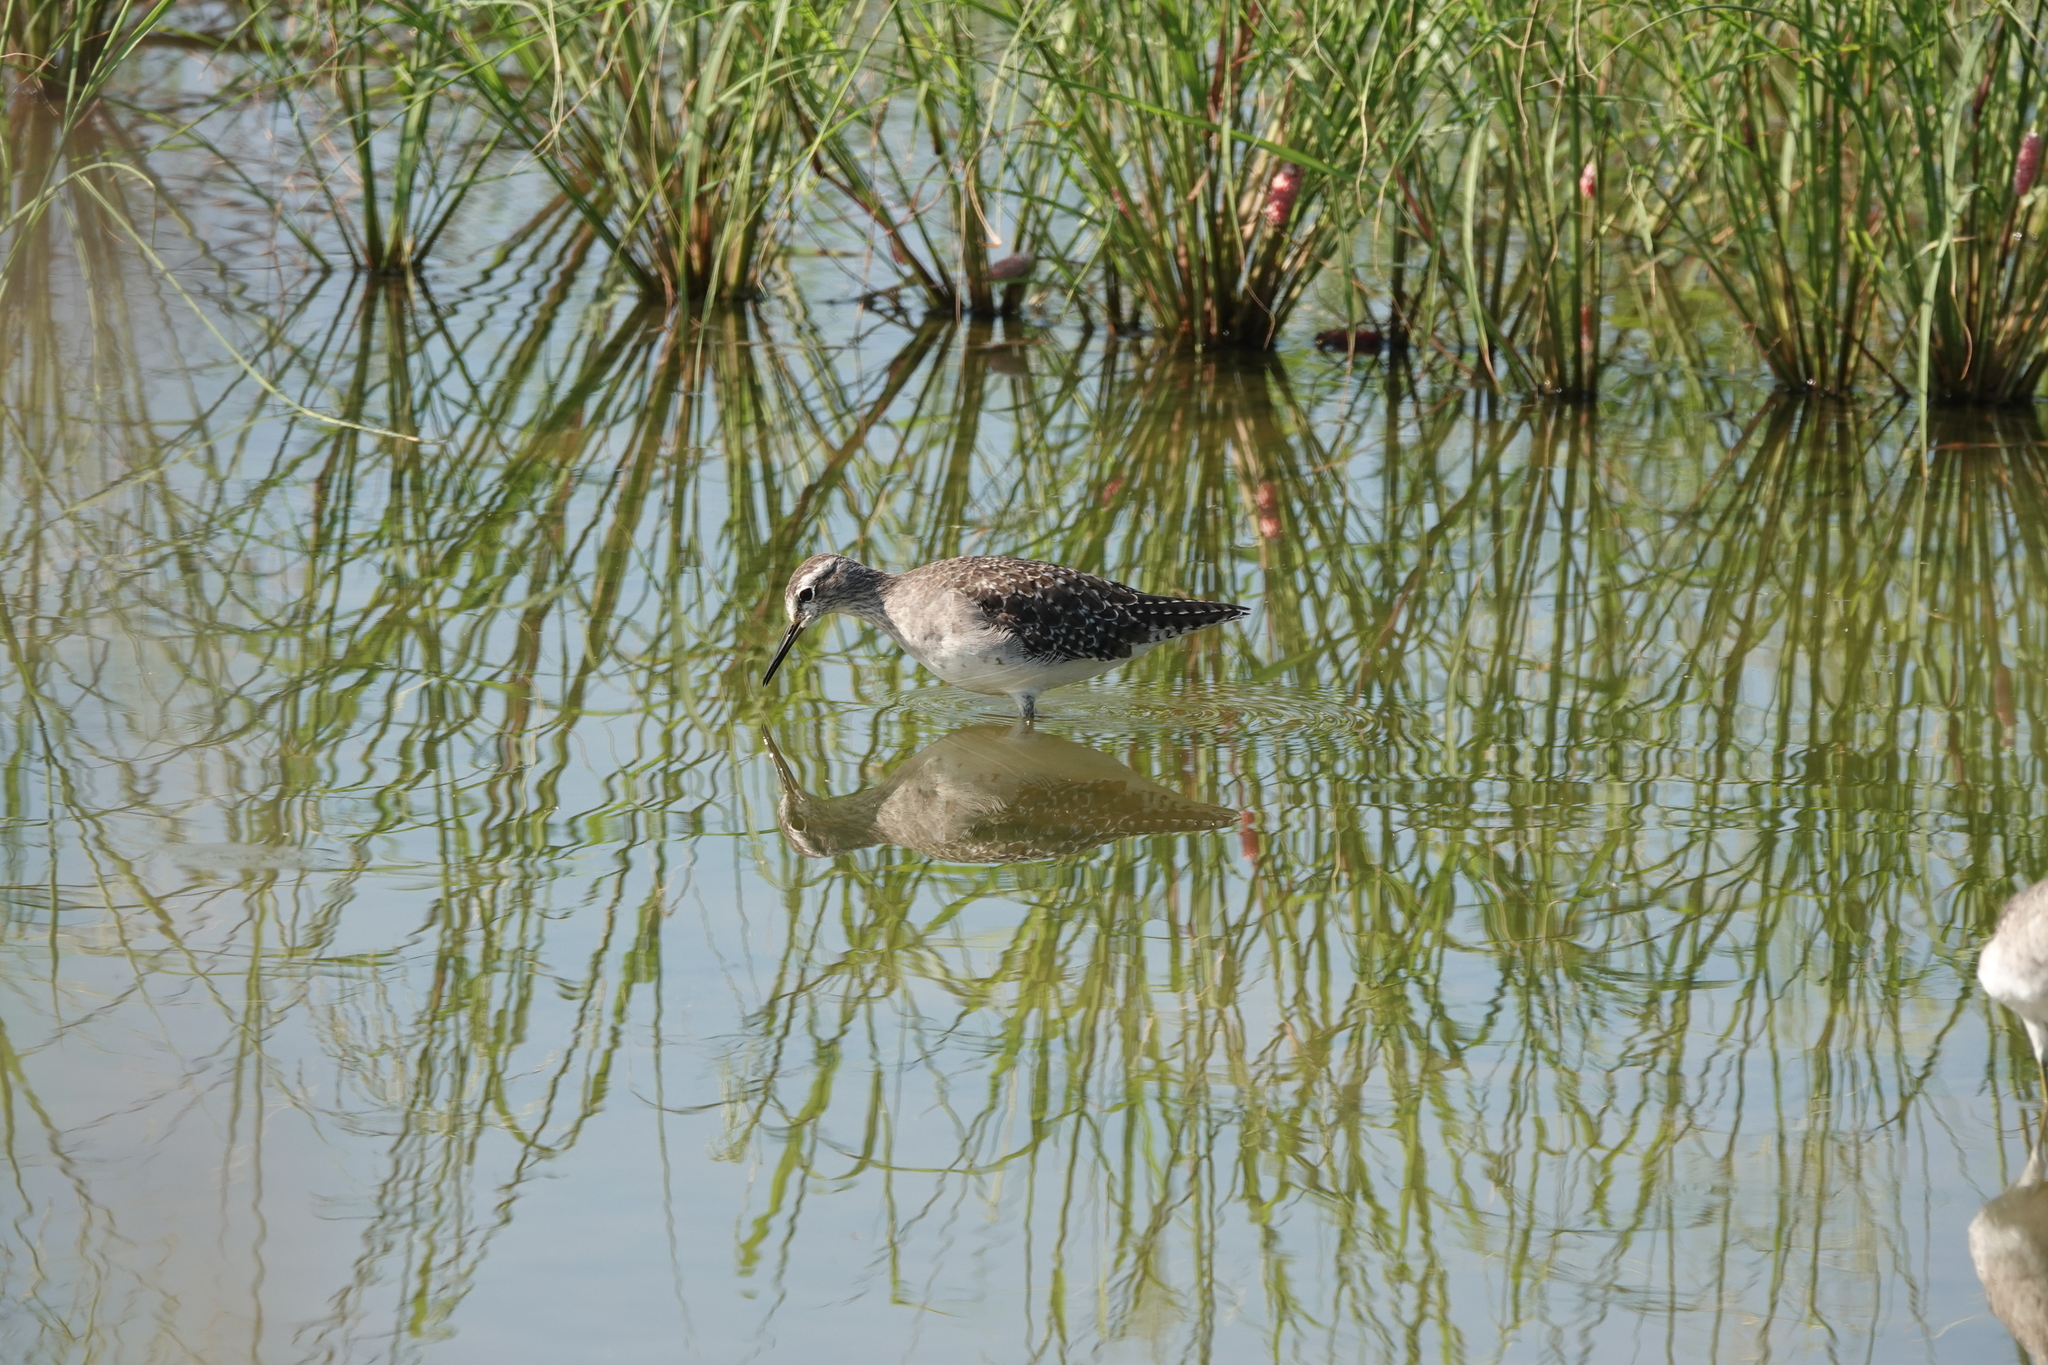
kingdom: Animalia
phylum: Chordata
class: Aves
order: Charadriiformes
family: Scolopacidae
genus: Tringa
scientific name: Tringa glareola
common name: Wood sandpiper
